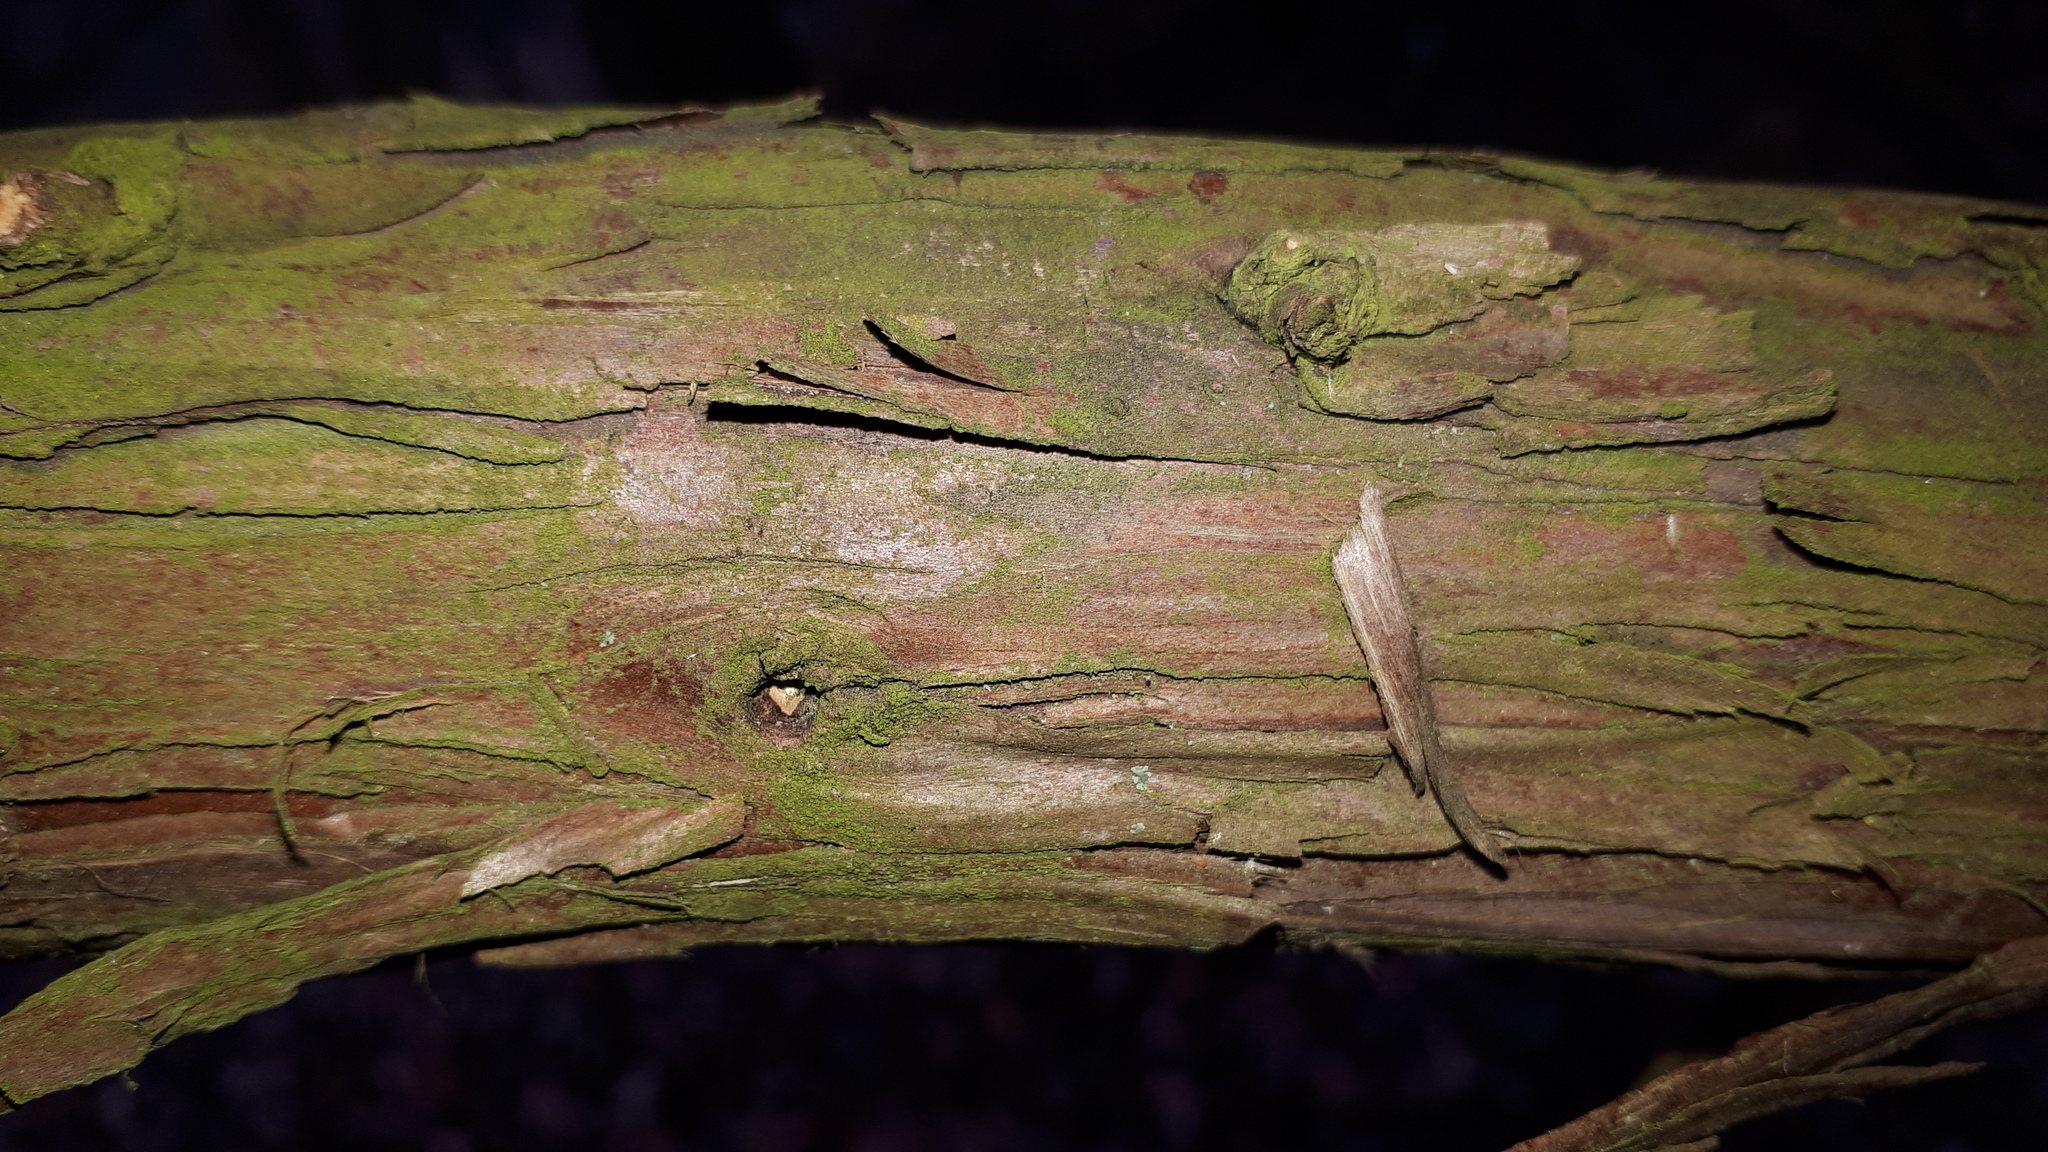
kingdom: Plantae
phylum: Tracheophyta
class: Pinopsida
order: Pinales
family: Cupressaceae
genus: Juniperus
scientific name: Juniperus communis
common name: Common juniper
